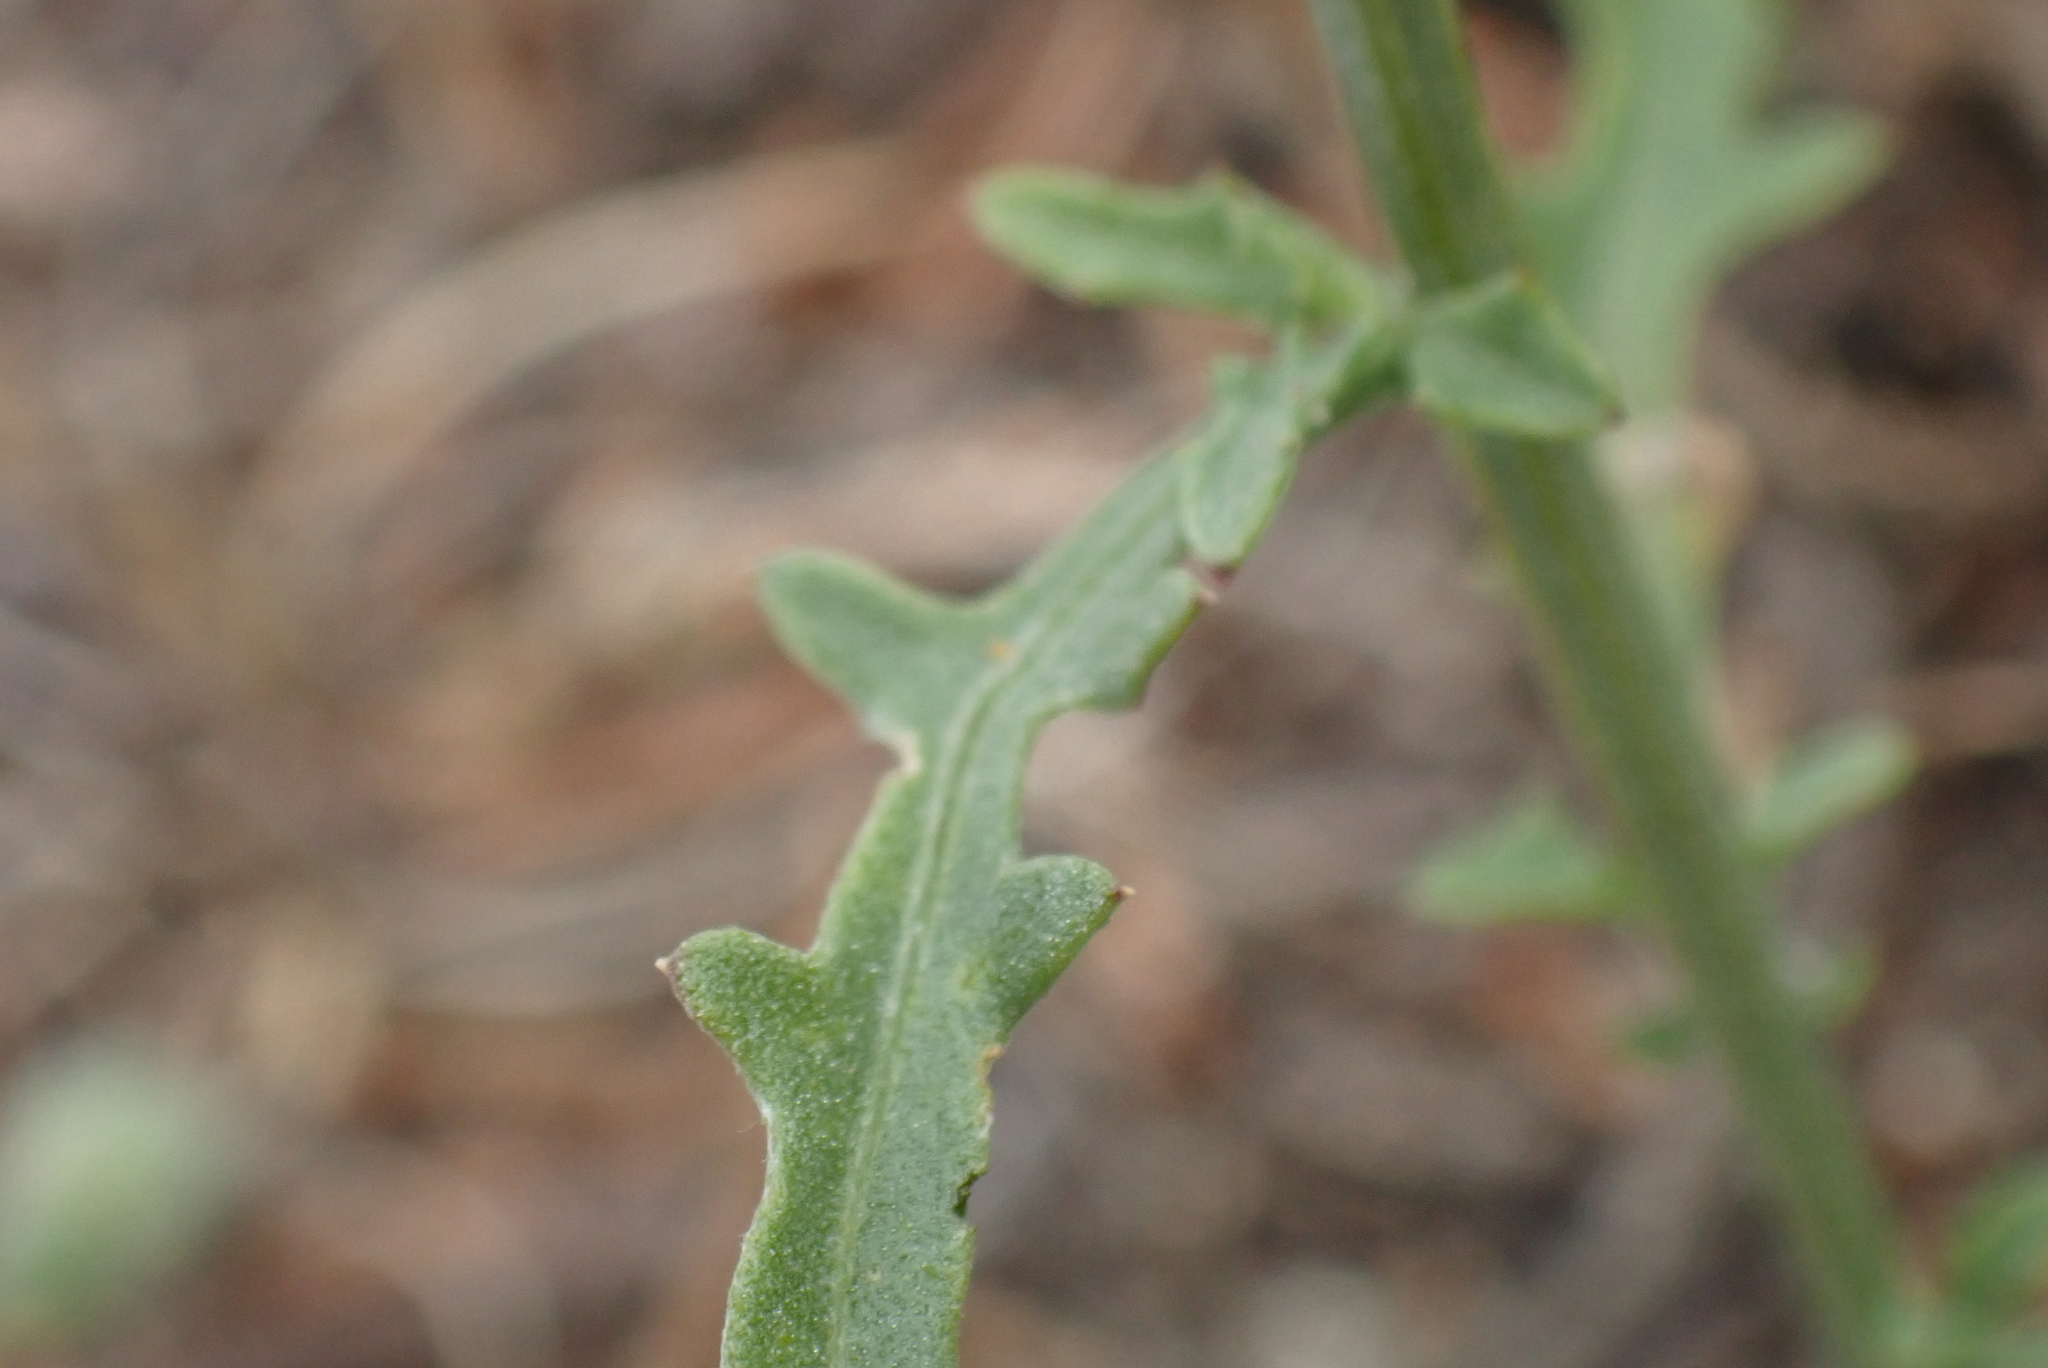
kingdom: Plantae
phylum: Tracheophyta
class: Magnoliopsida
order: Asterales
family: Asteraceae
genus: Centaurea
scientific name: Centaurea aspera
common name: Rough star-thistle
